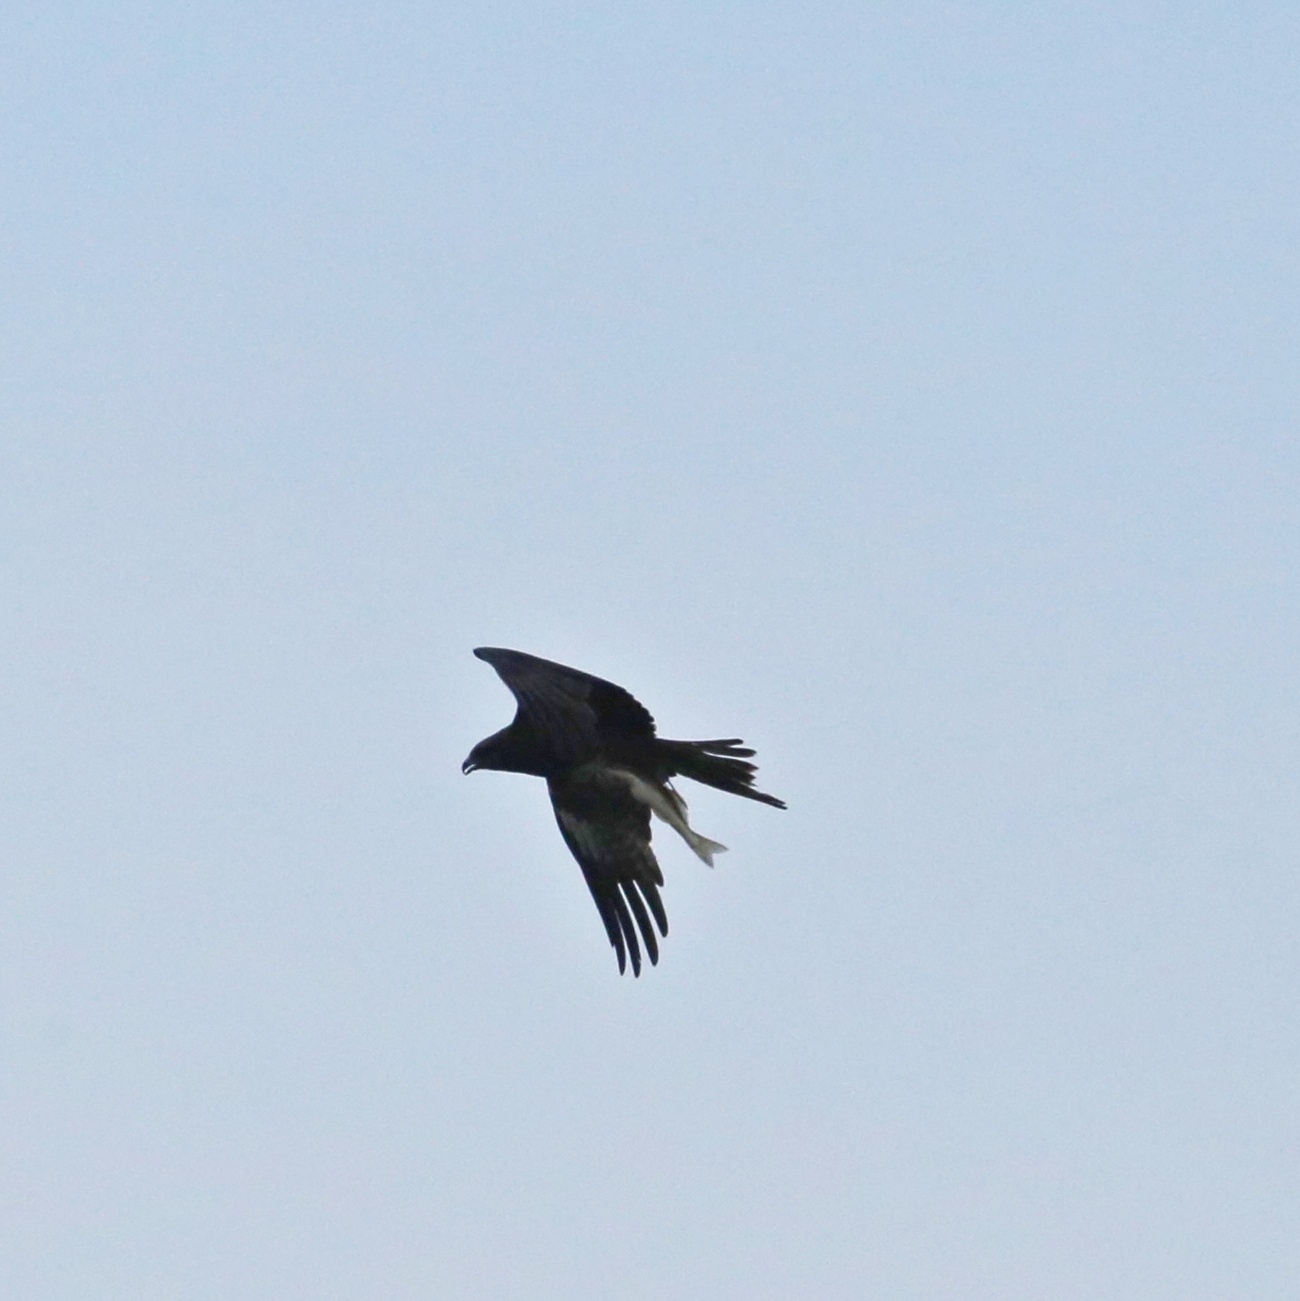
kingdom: Animalia
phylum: Chordata
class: Aves
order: Accipitriformes
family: Accipitridae
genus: Milvus
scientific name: Milvus migrans
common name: Black kite
